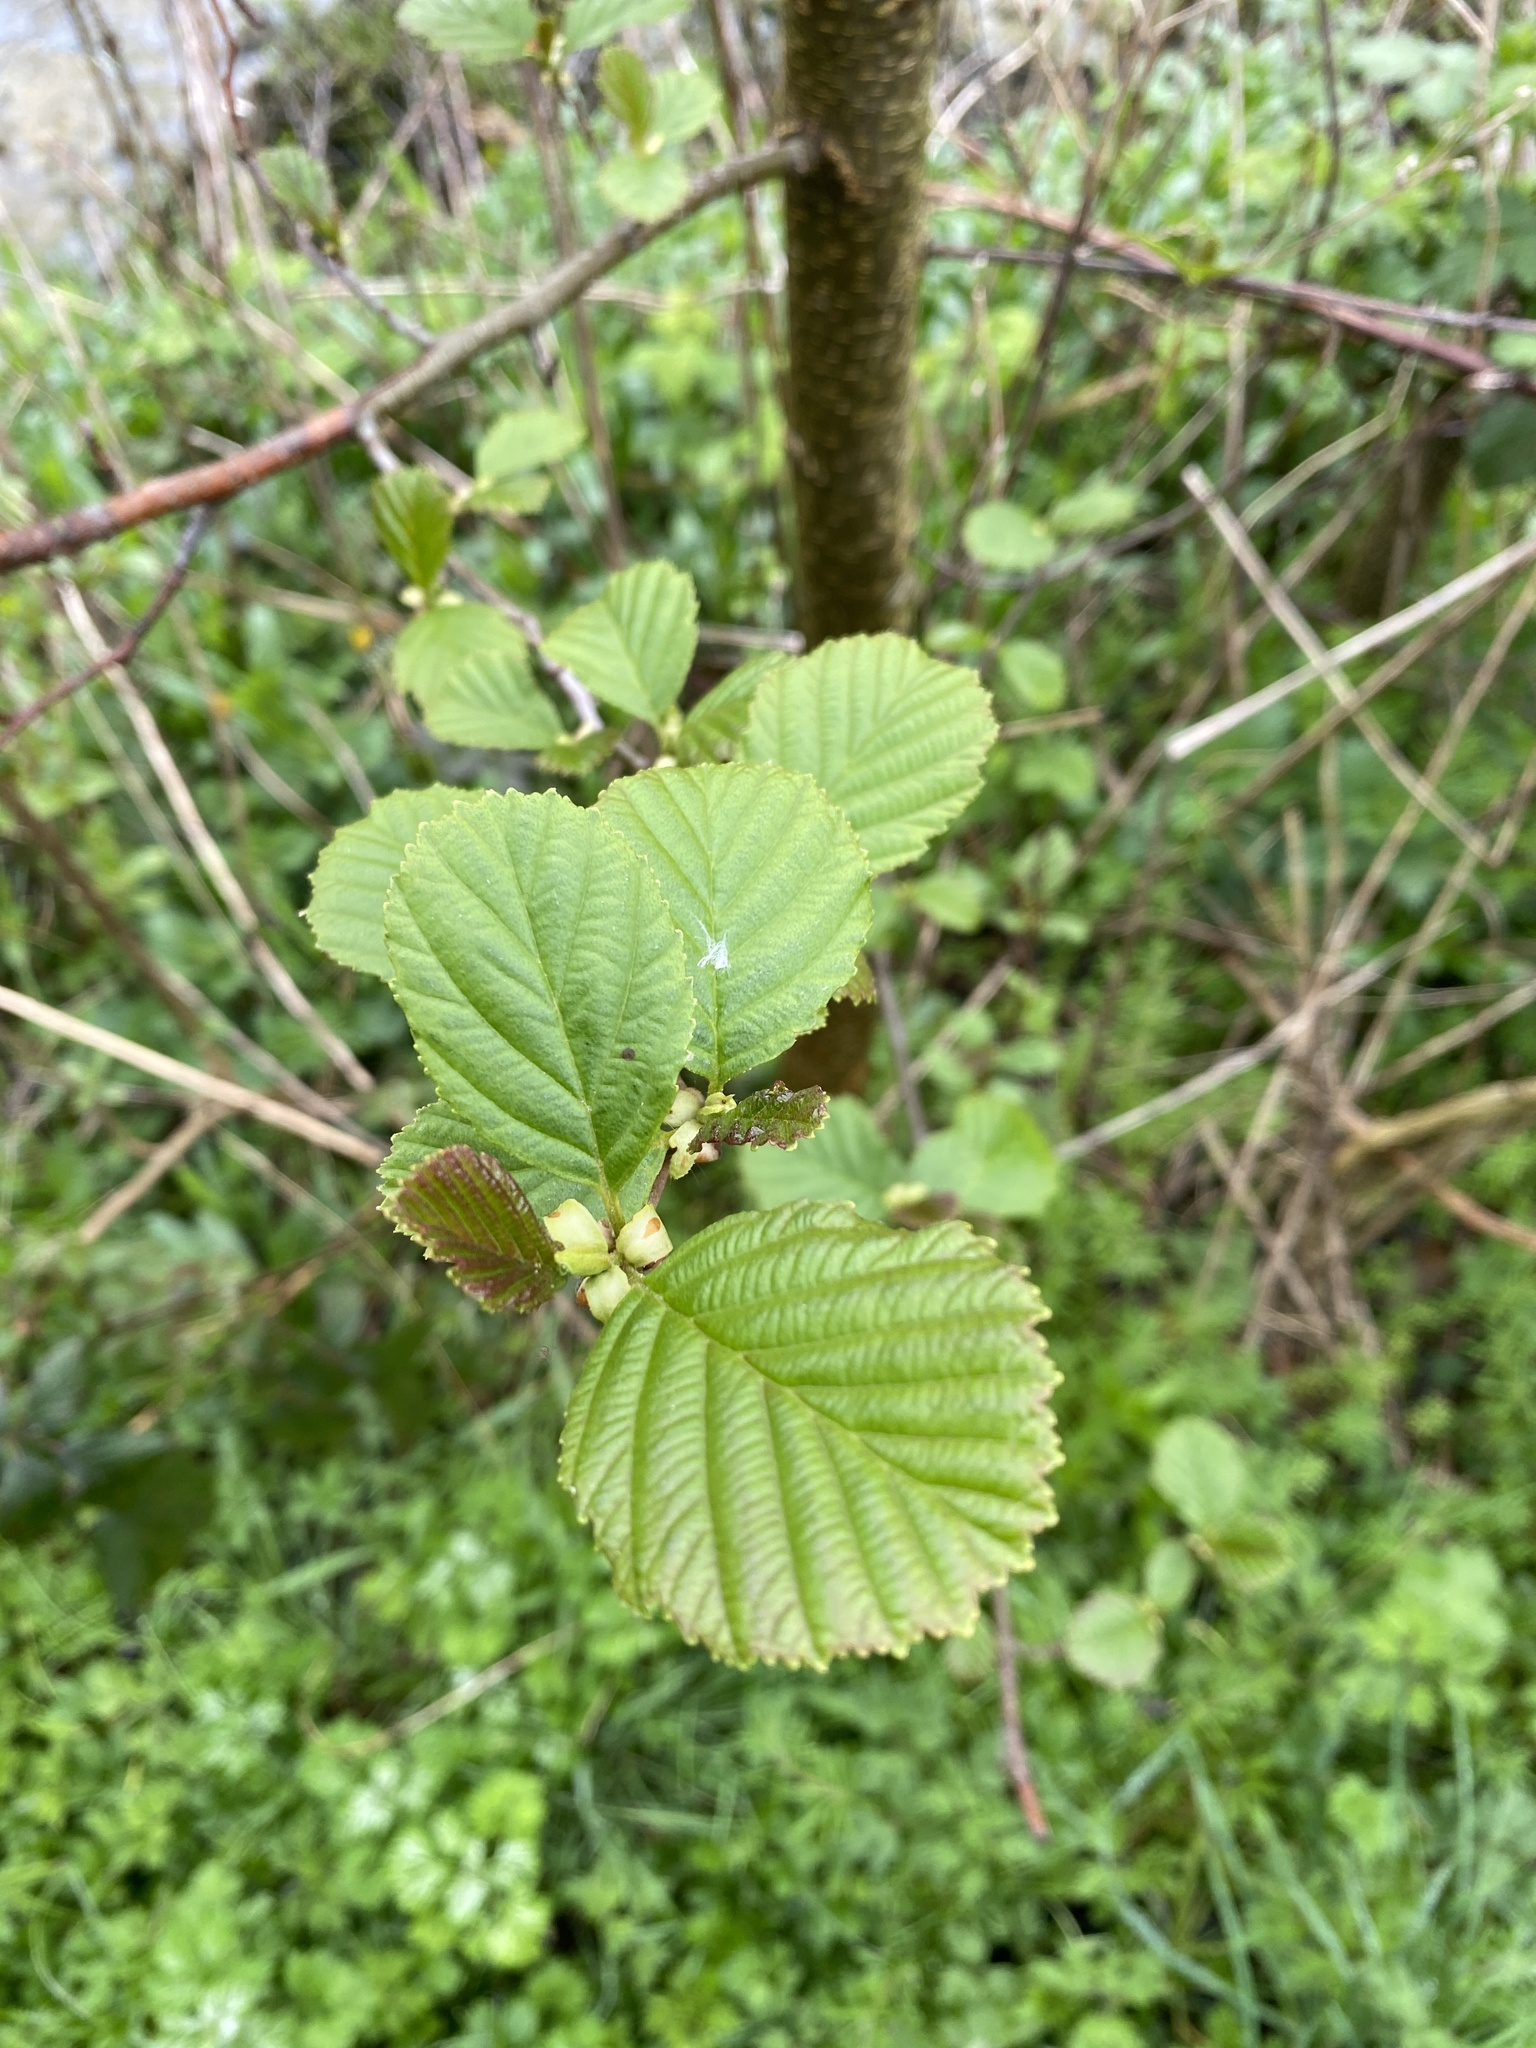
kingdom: Plantae
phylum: Tracheophyta
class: Magnoliopsida
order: Fagales
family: Betulaceae
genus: Alnus
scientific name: Alnus glutinosa
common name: Black alder
